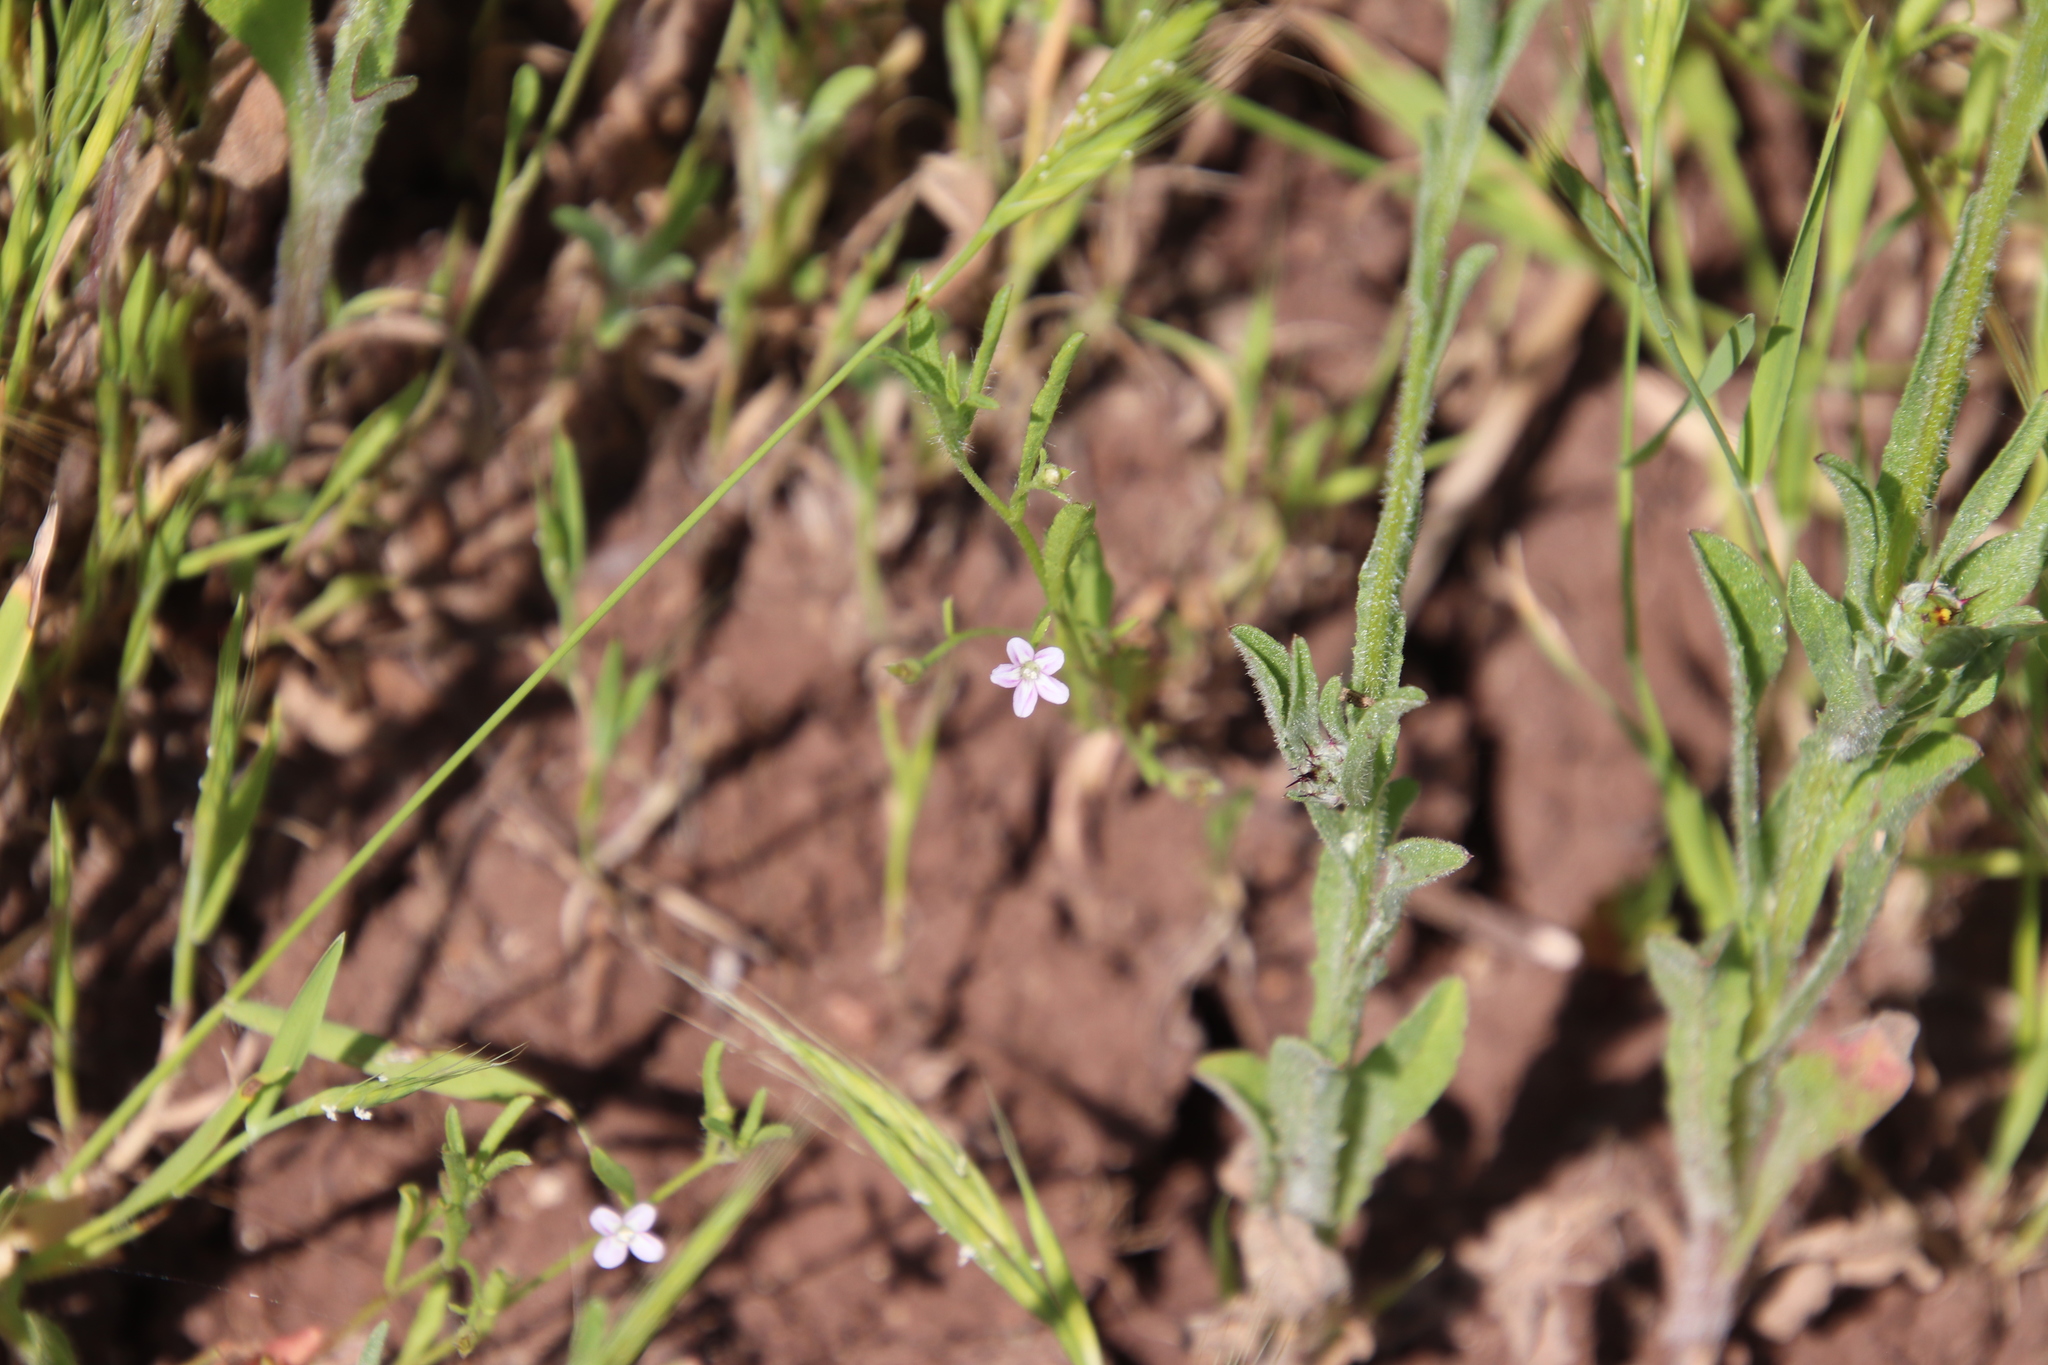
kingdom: Plantae
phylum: Tracheophyta
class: Magnoliopsida
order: Solanales
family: Convolvulaceae
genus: Convolvulus
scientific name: Convolvulus simulans
